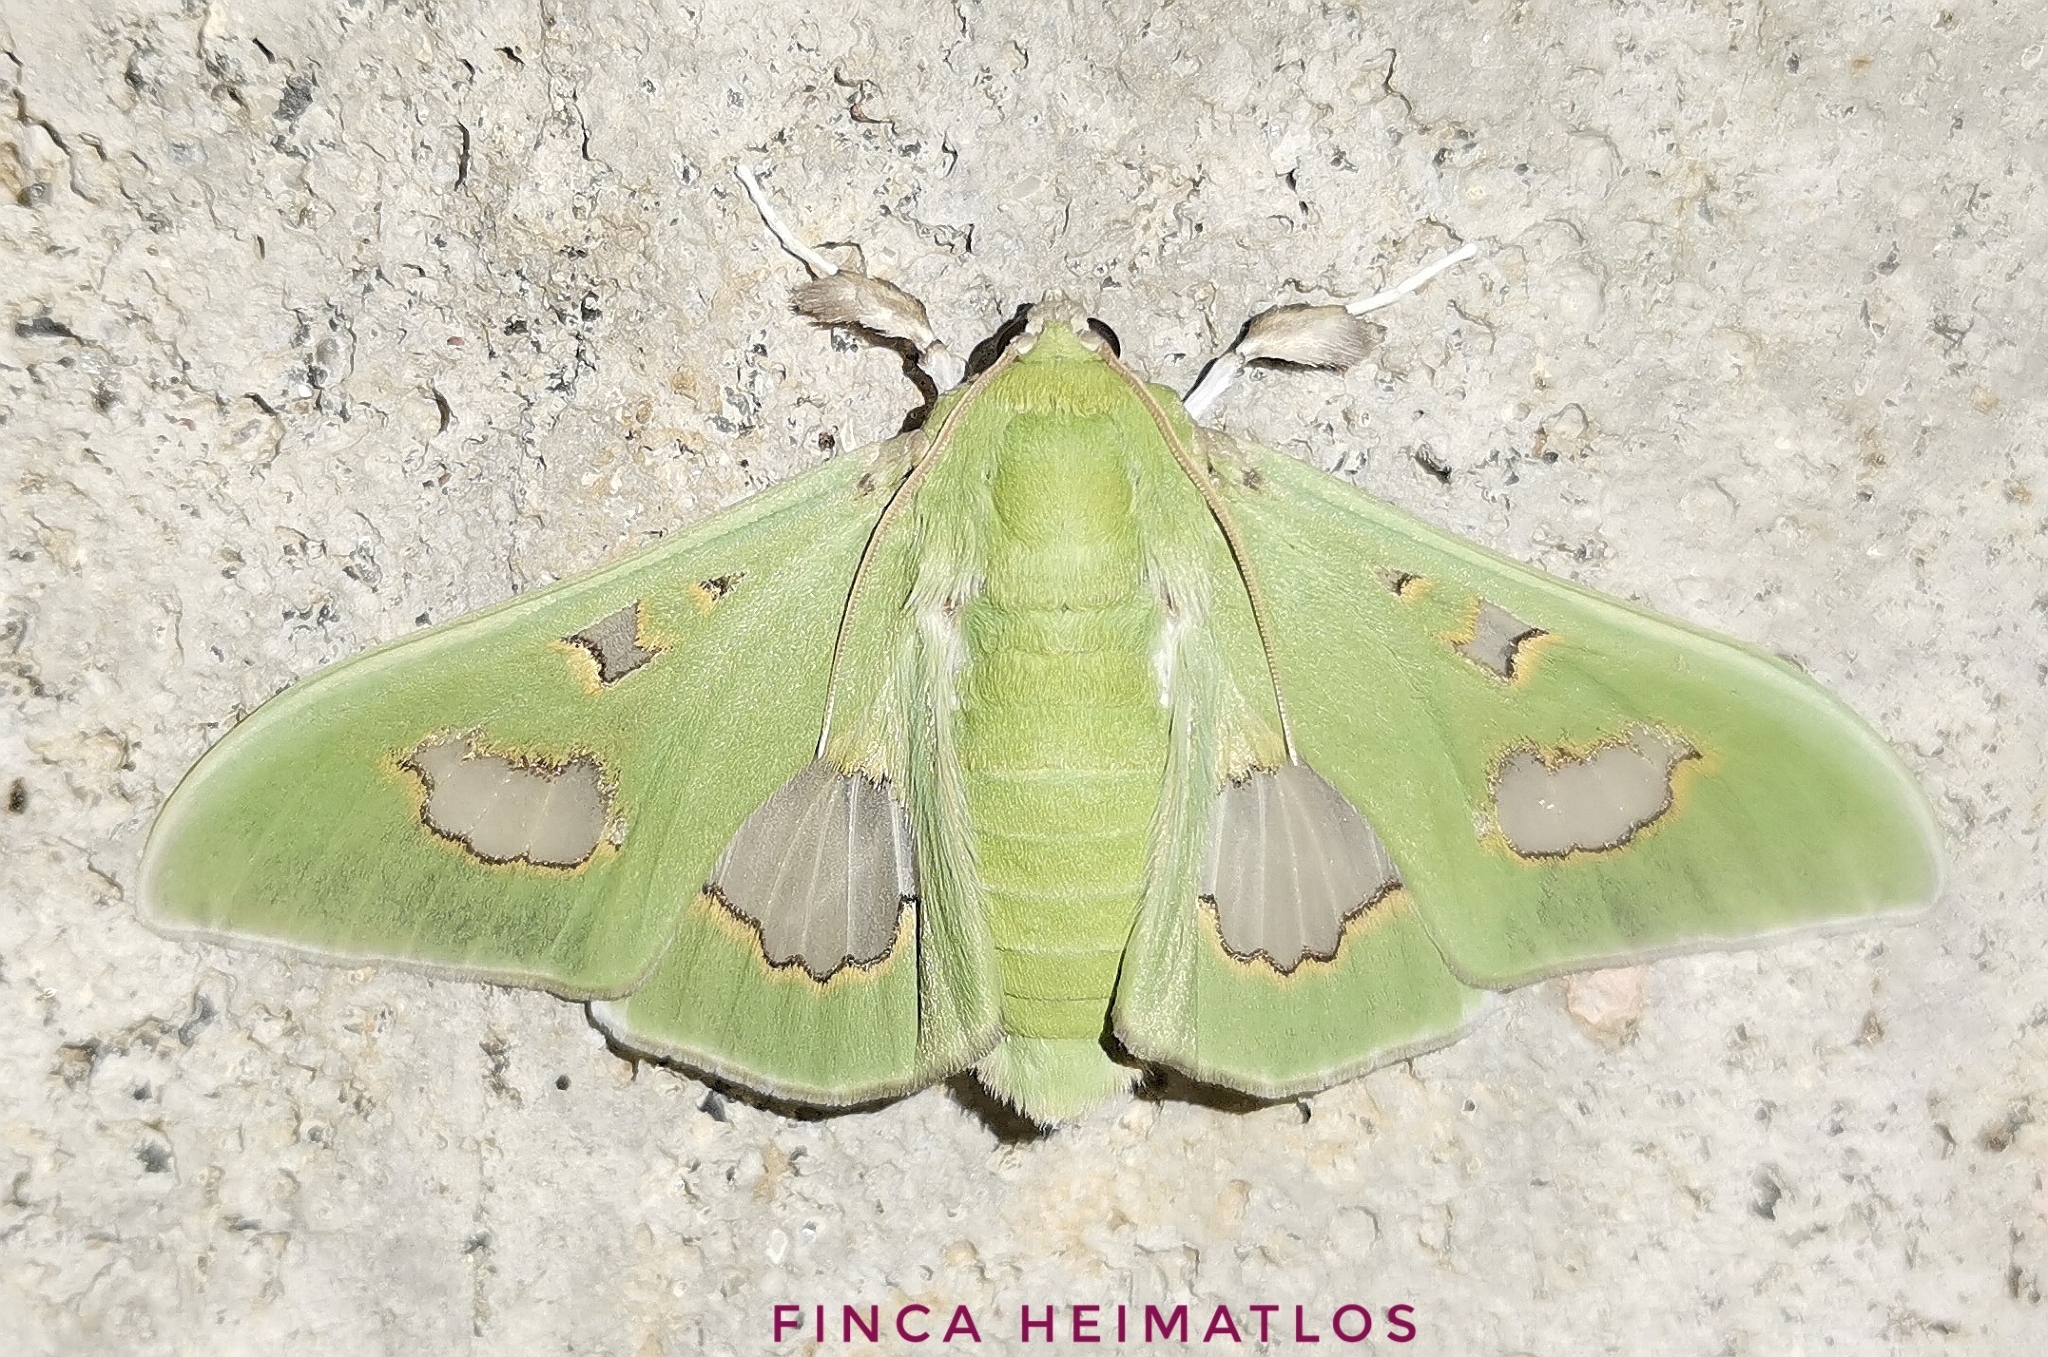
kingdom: Animalia
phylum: Arthropoda
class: Insecta
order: Lepidoptera
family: Crambidae
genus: Siga
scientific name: Siga liris
